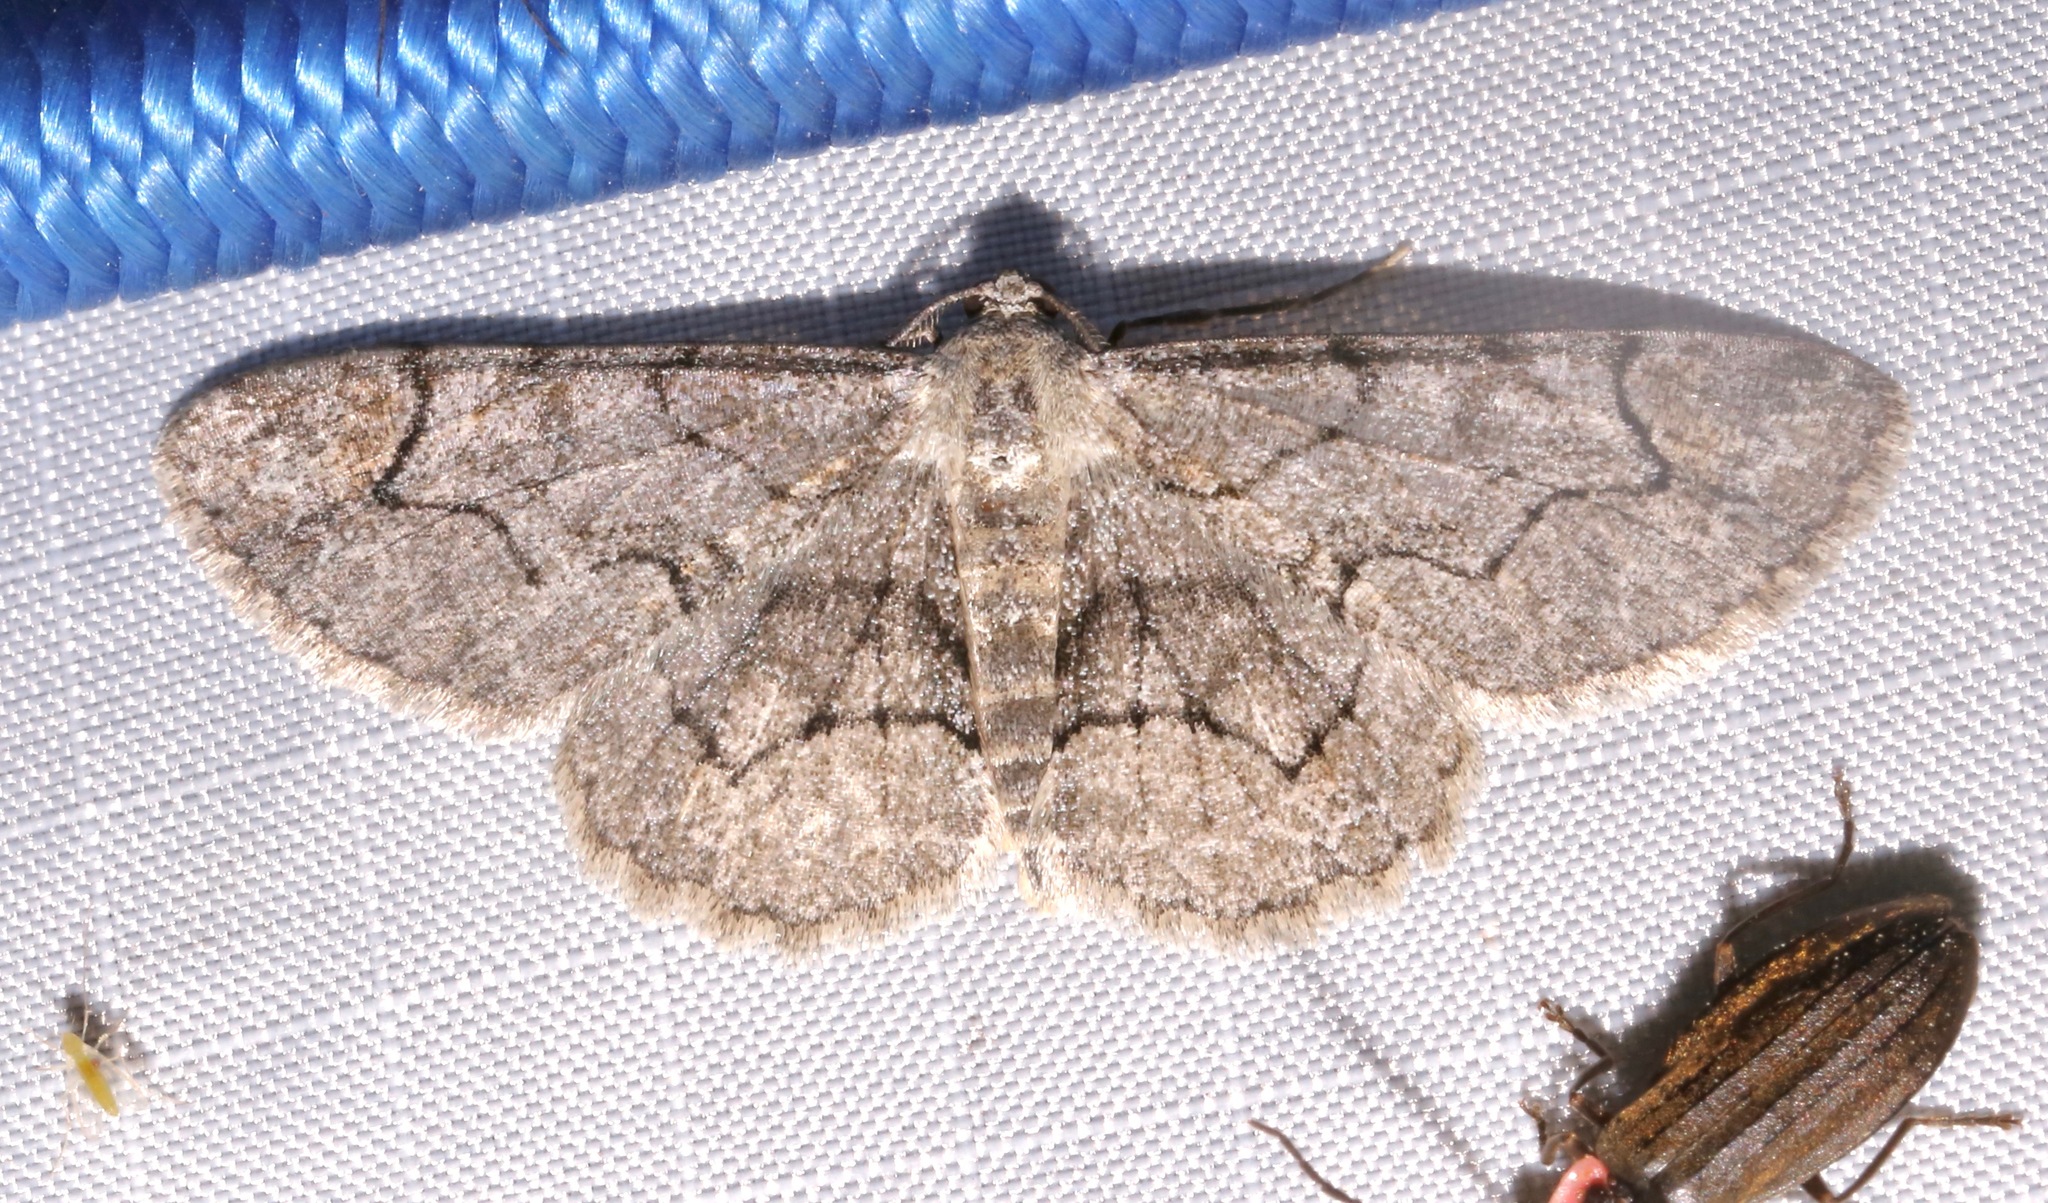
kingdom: Animalia
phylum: Arthropoda
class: Insecta
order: Lepidoptera
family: Geometridae
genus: Iridopsis
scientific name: Iridopsis larvaria
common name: Bent-line gray
